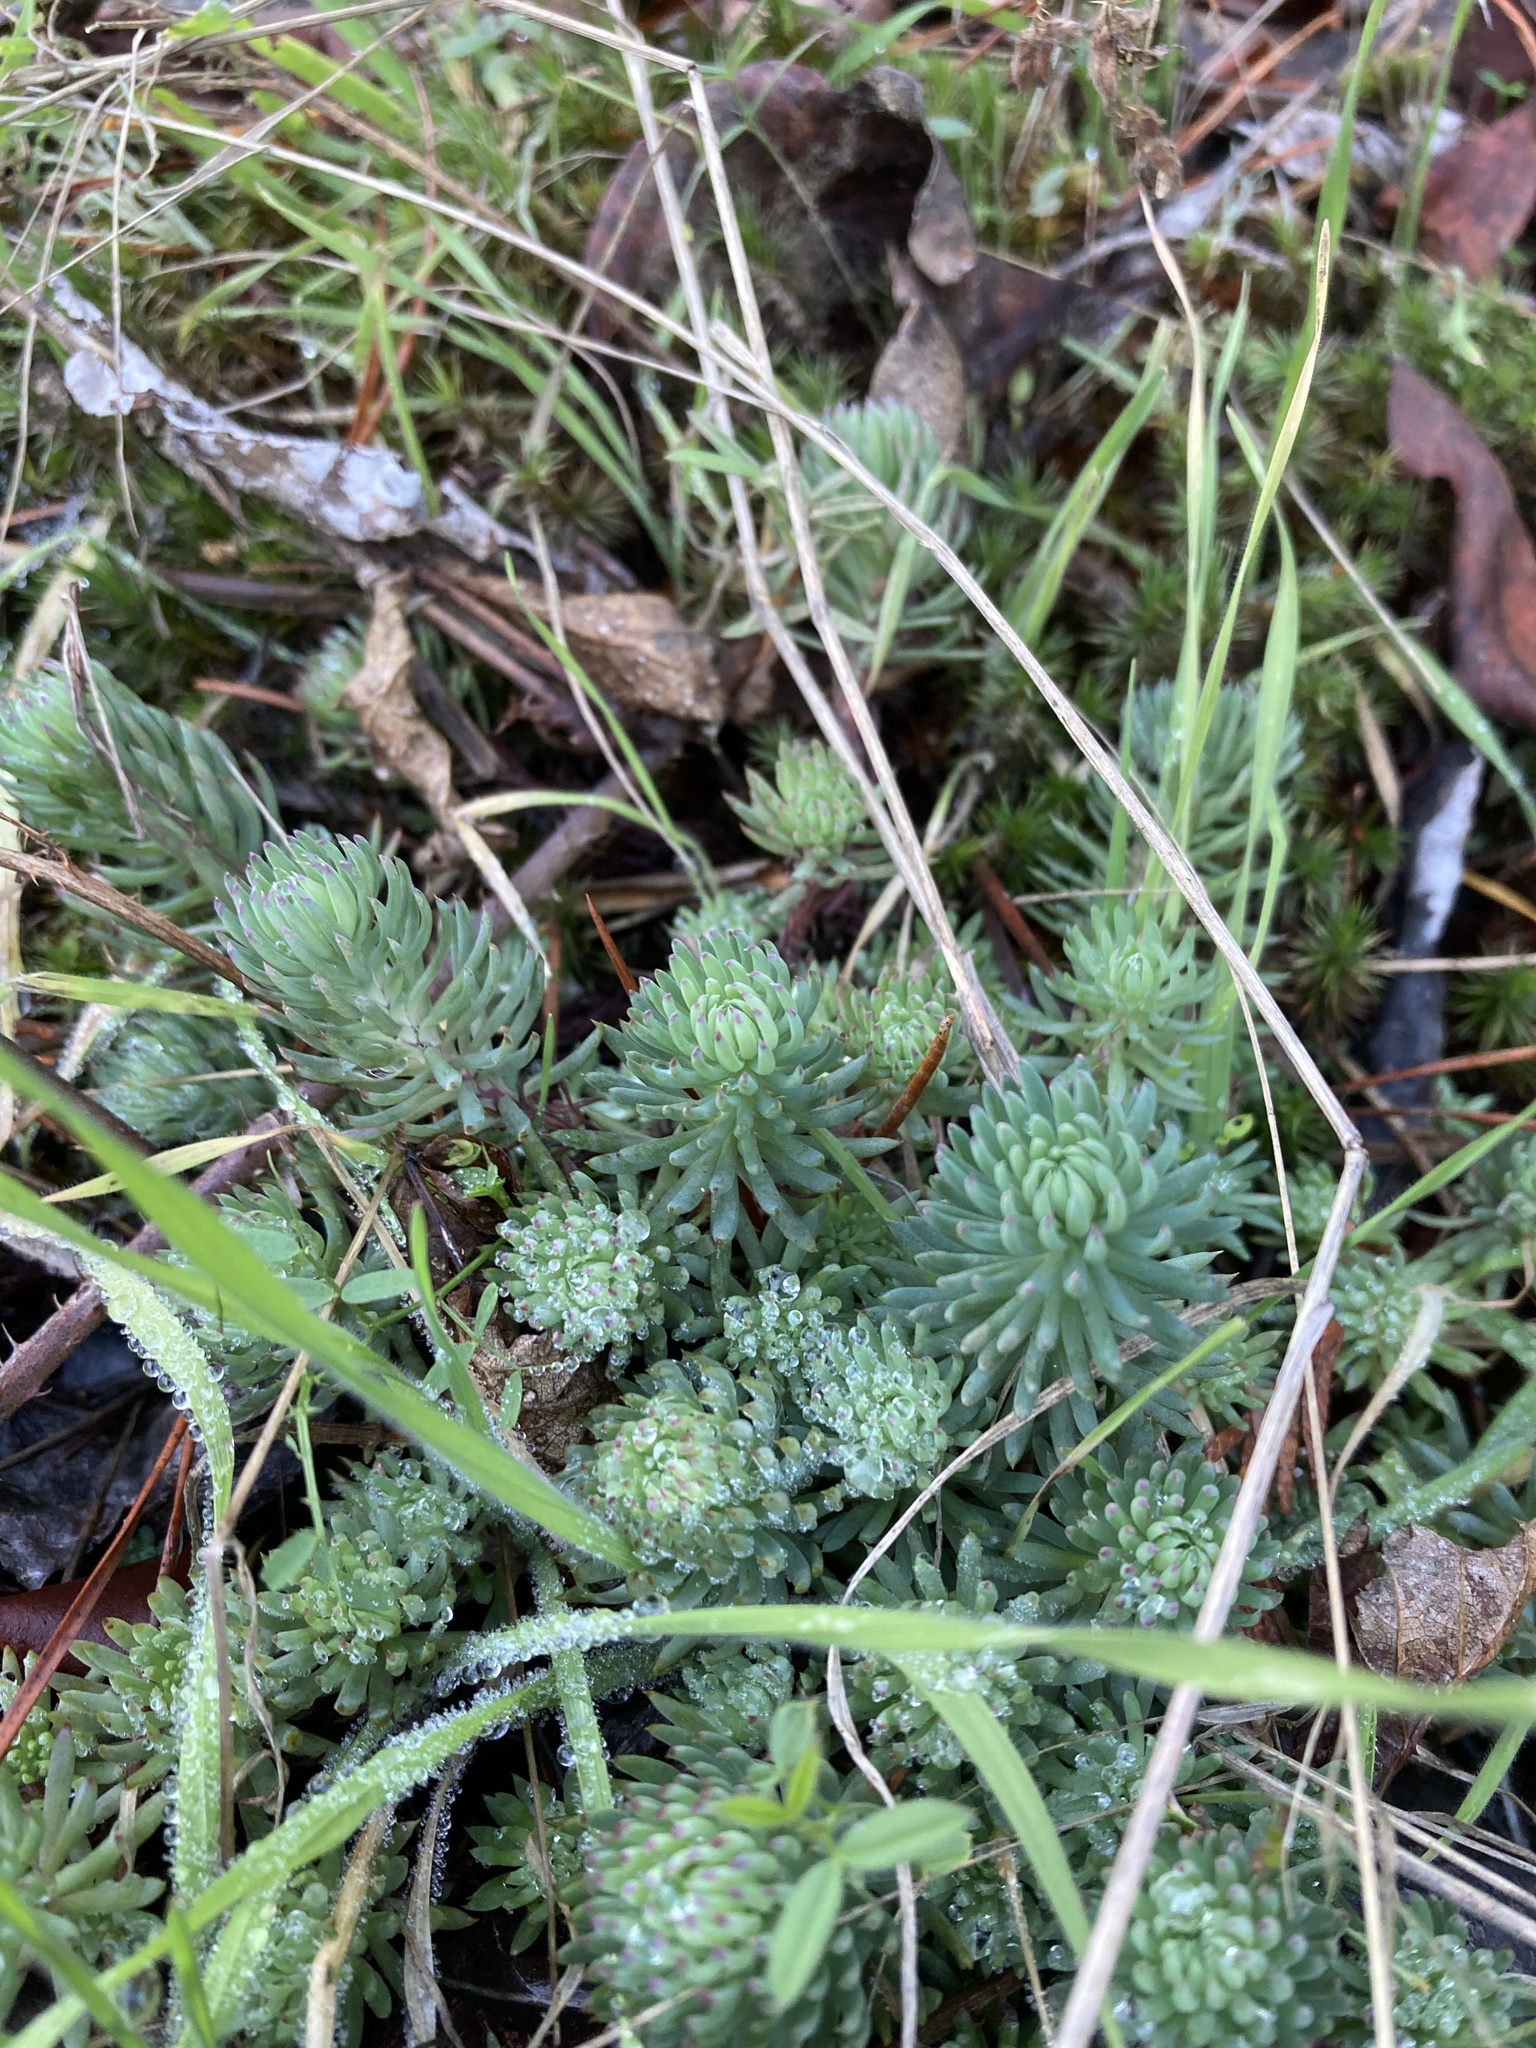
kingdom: Plantae
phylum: Tracheophyta
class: Magnoliopsida
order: Saxifragales
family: Crassulaceae
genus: Petrosedum
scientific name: Petrosedum forsterianum
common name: Forster's stonecrop
